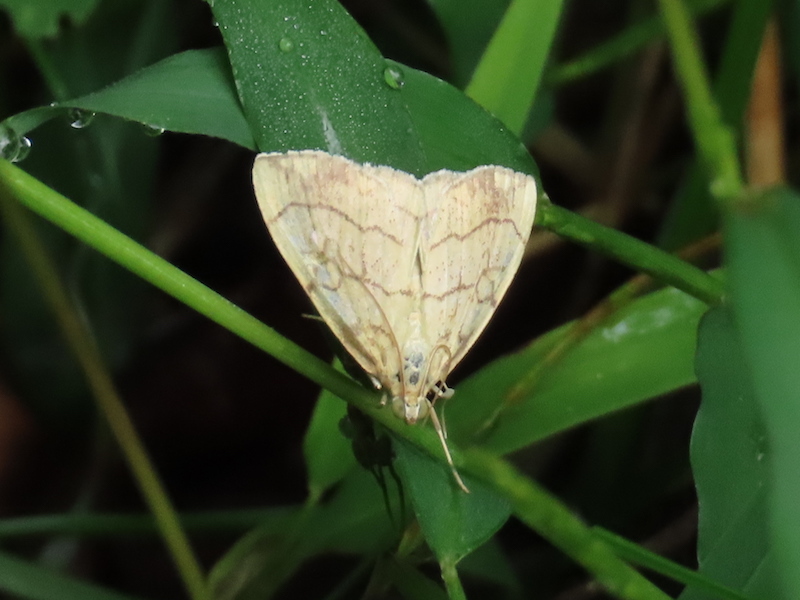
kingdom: Animalia
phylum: Arthropoda
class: Insecta
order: Lepidoptera
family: Crambidae
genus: Evergestis
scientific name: Evergestis pallidata
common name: Chequered pearl
